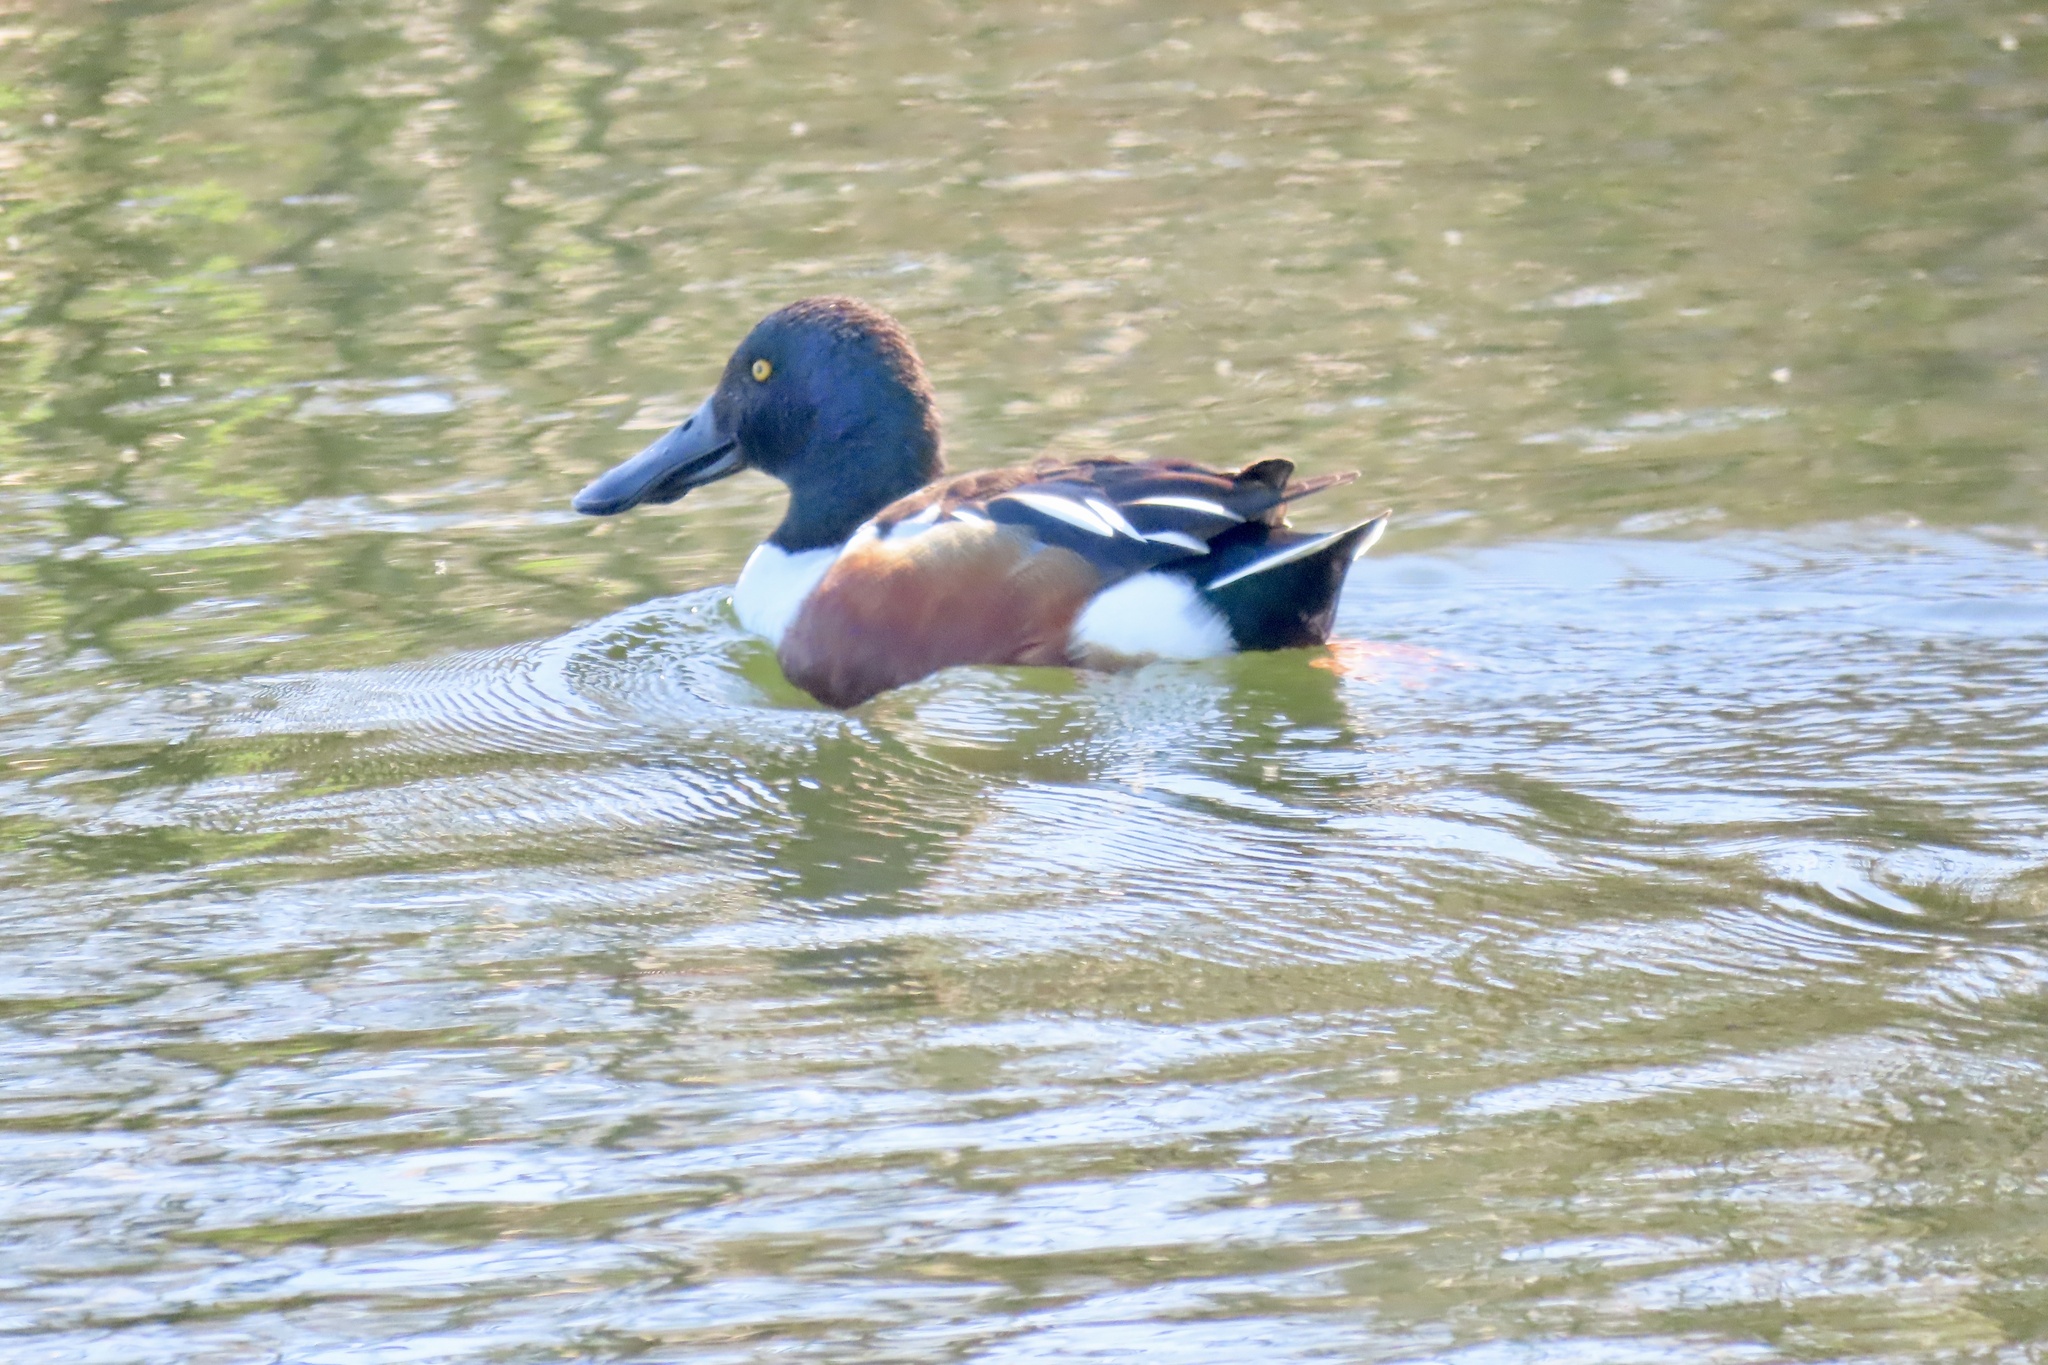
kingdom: Animalia
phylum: Chordata
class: Aves
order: Anseriformes
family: Anatidae
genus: Spatula
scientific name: Spatula clypeata
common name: Northern shoveler
